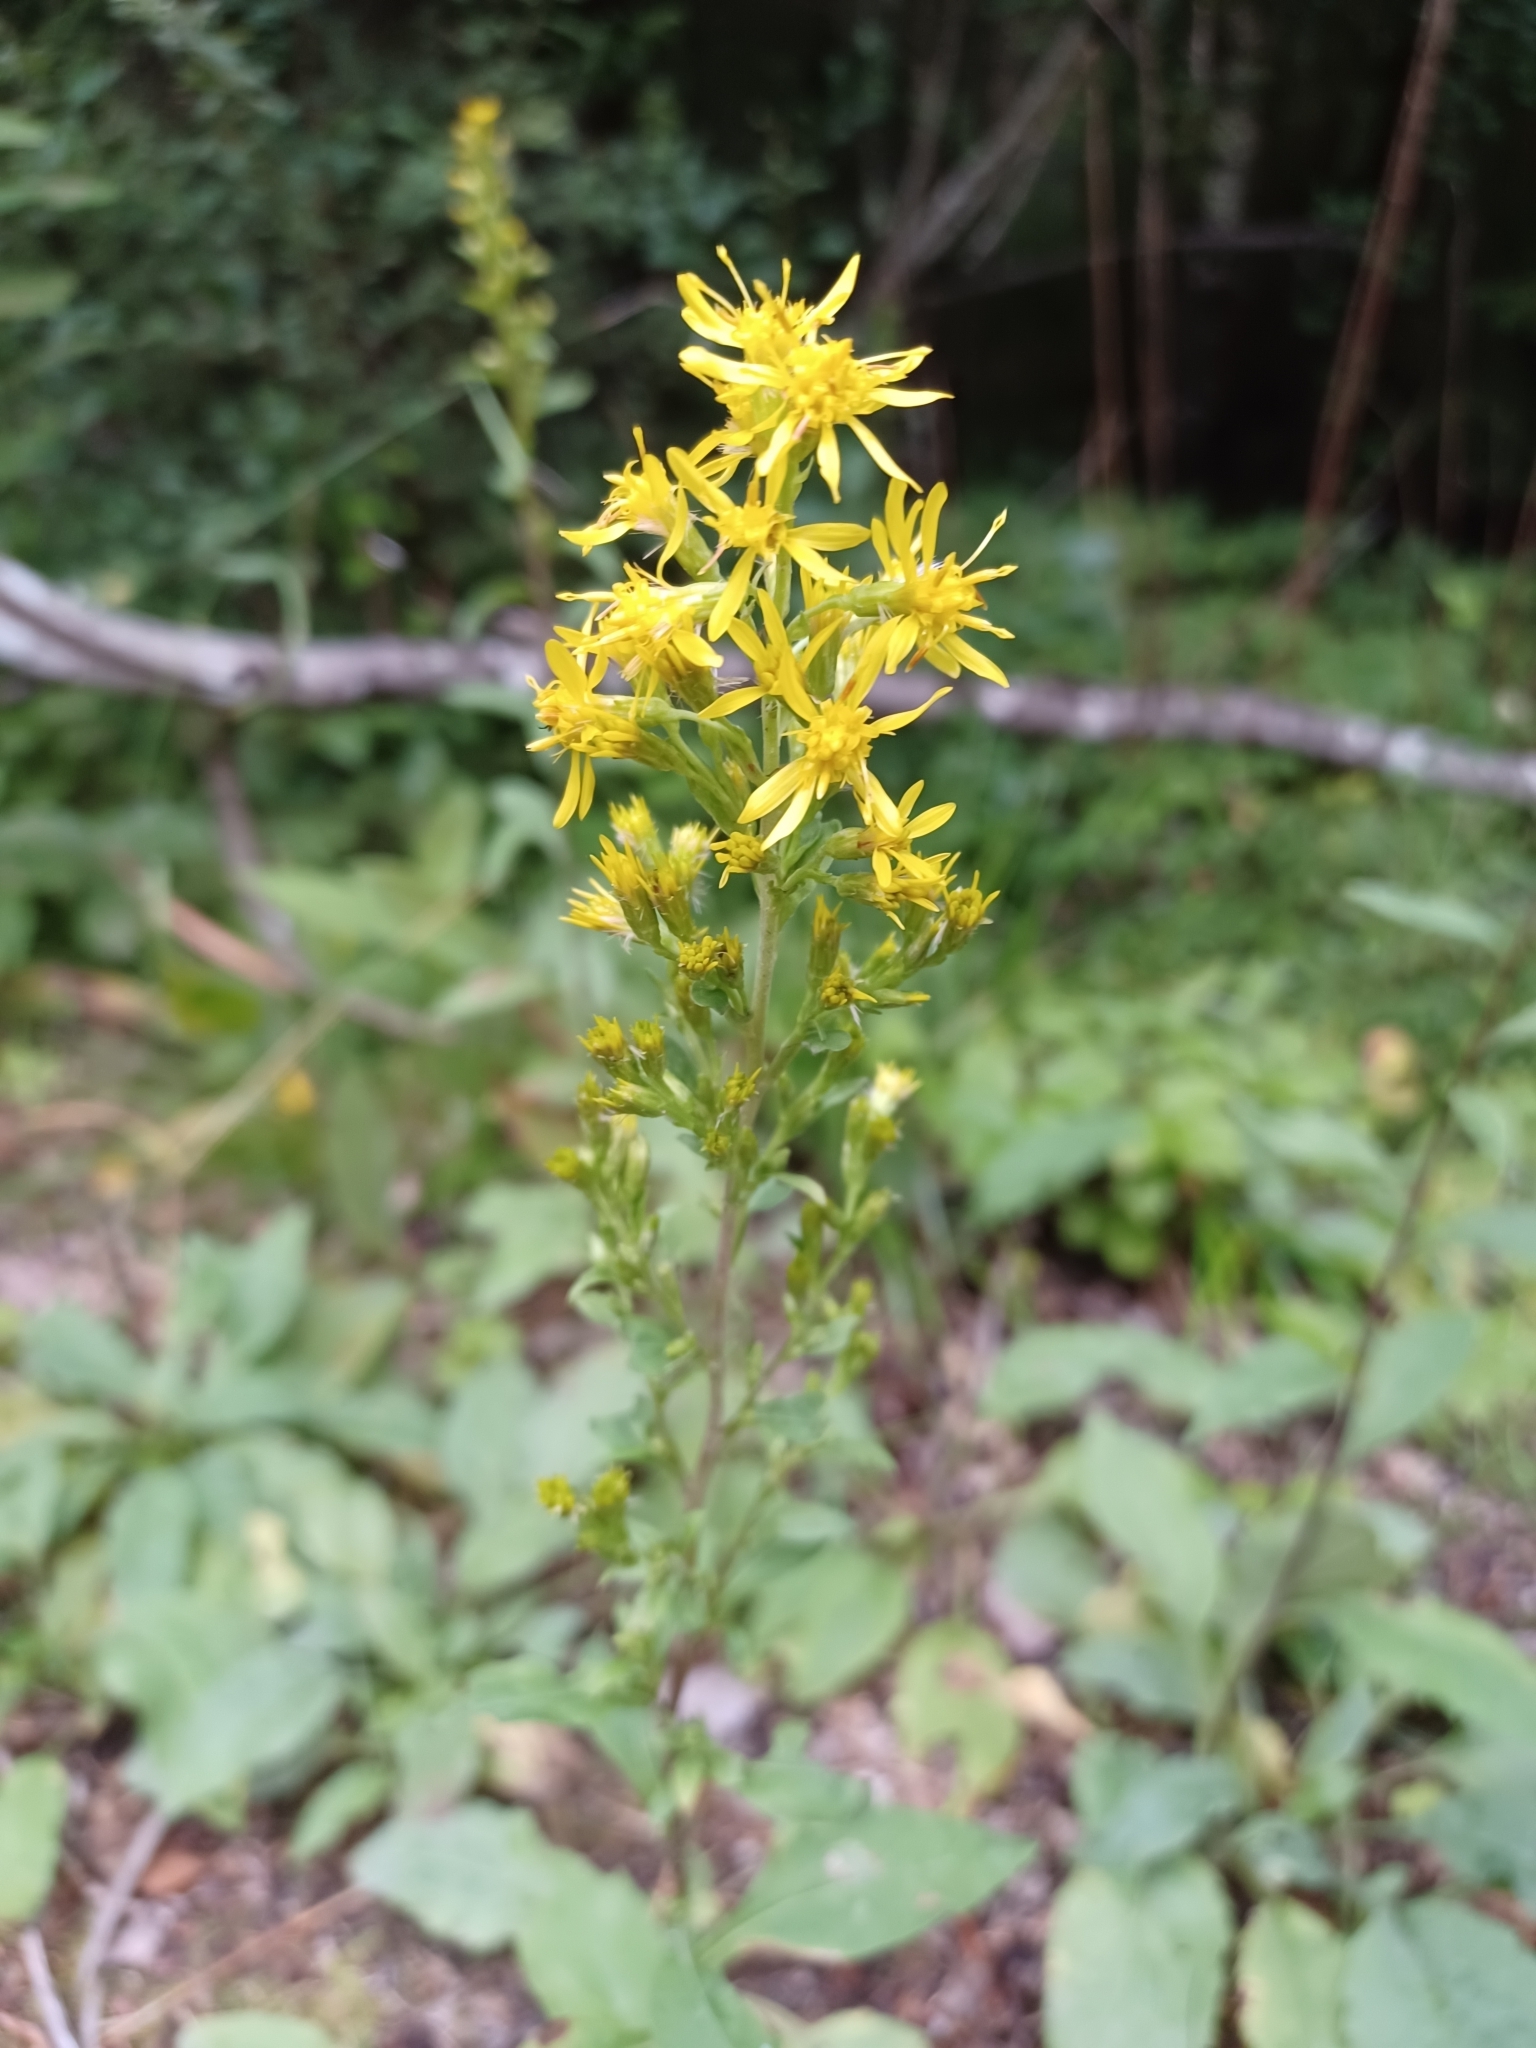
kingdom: Plantae
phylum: Tracheophyta
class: Magnoliopsida
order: Asterales
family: Asteraceae
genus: Solidago
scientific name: Solidago virgaurea
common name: Goldenrod
